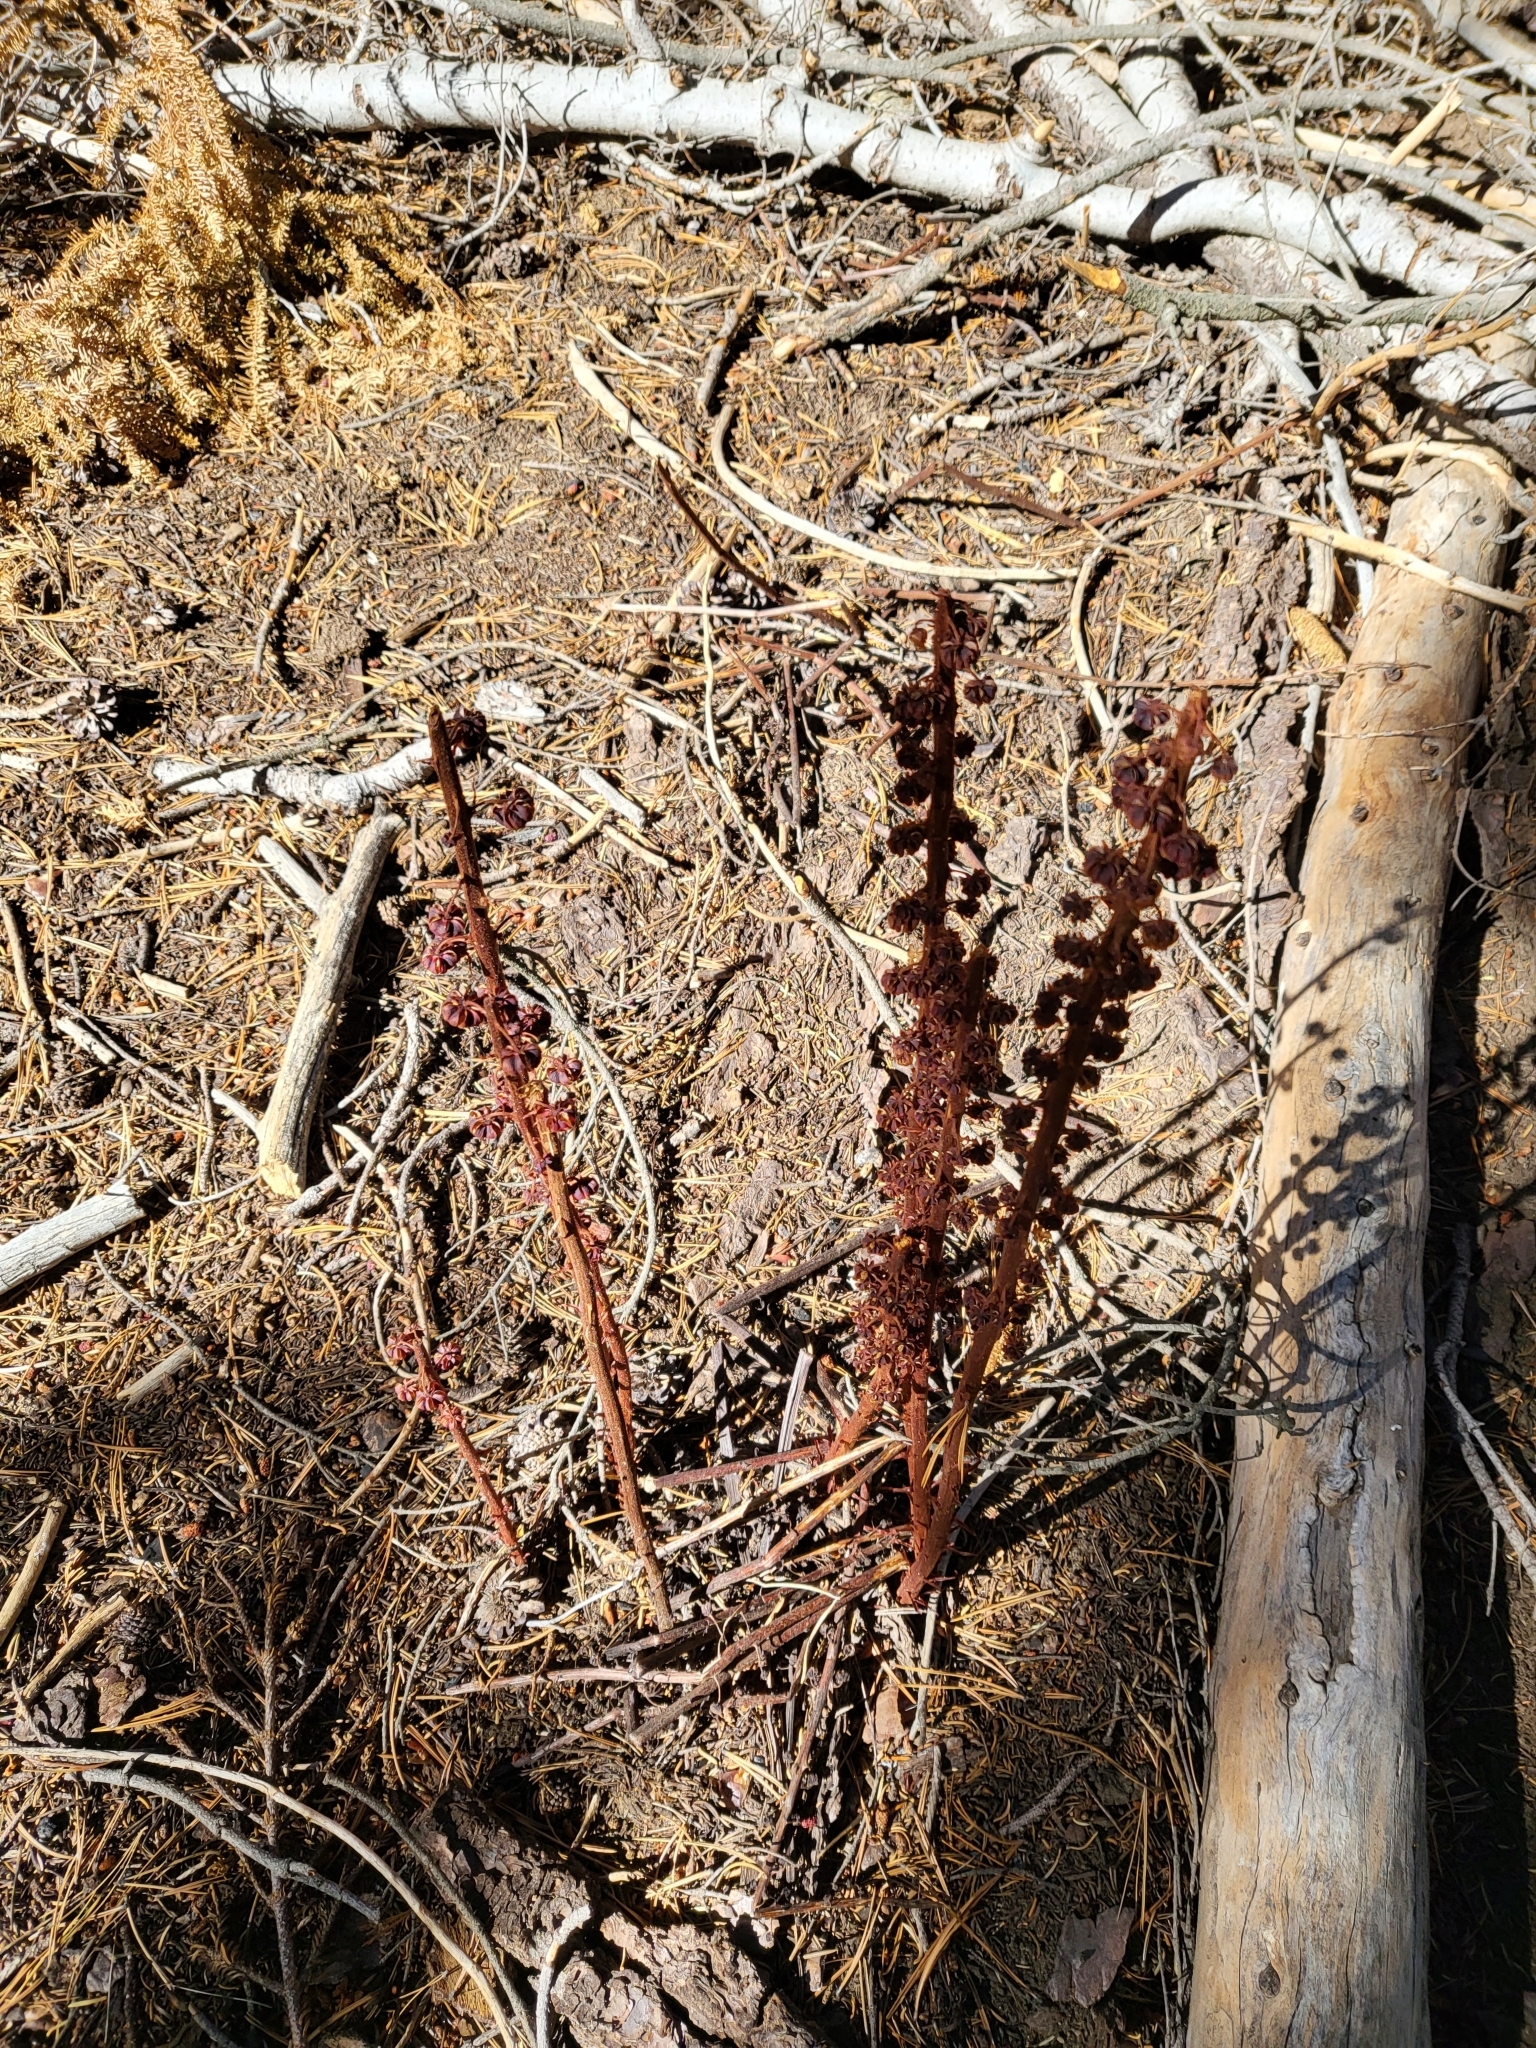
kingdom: Plantae
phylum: Tracheophyta
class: Magnoliopsida
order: Ericales
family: Ericaceae
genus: Pterospora
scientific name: Pterospora andromedea
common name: Giant bird's-nest
